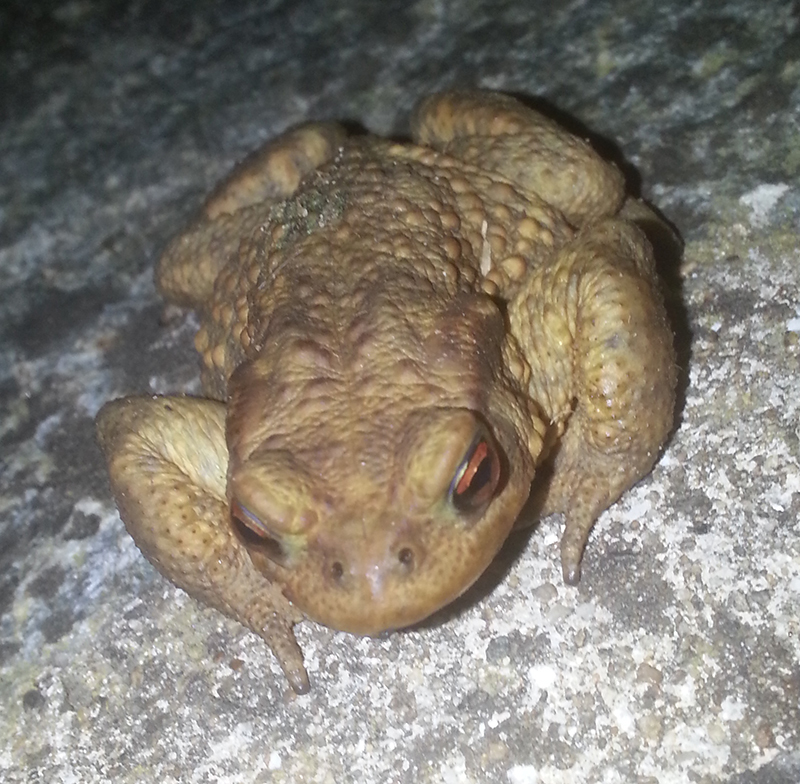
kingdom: Animalia
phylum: Chordata
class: Amphibia
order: Anura
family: Bufonidae
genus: Bufo
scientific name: Bufo spinosus
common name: Western common toad
